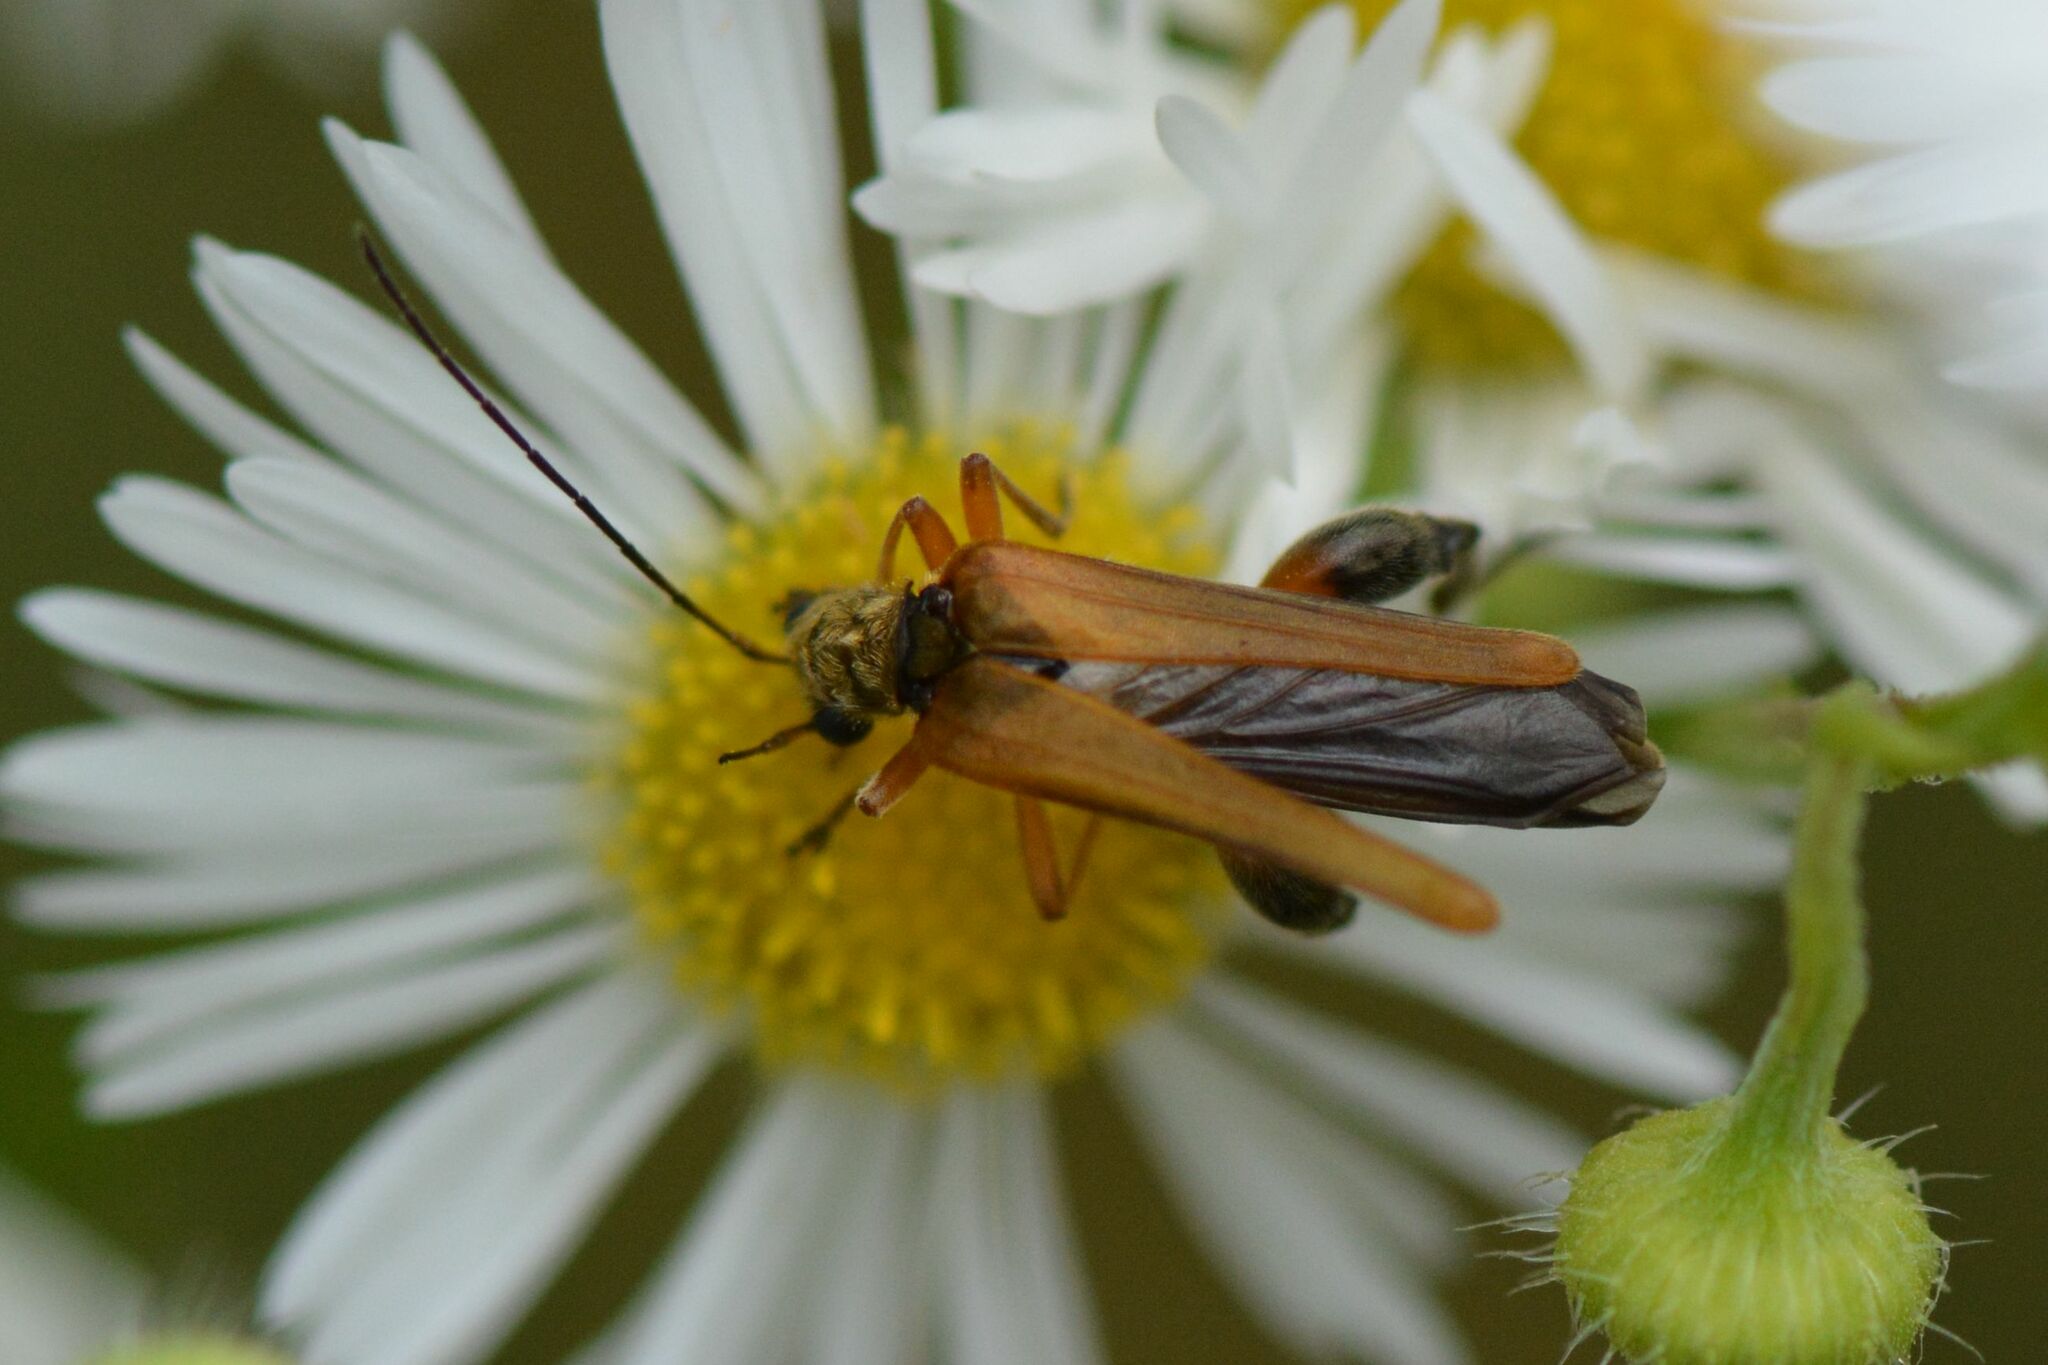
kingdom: Animalia
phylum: Arthropoda
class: Insecta
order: Coleoptera
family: Oedemeridae
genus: Oedemera
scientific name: Oedemera podagrariae
